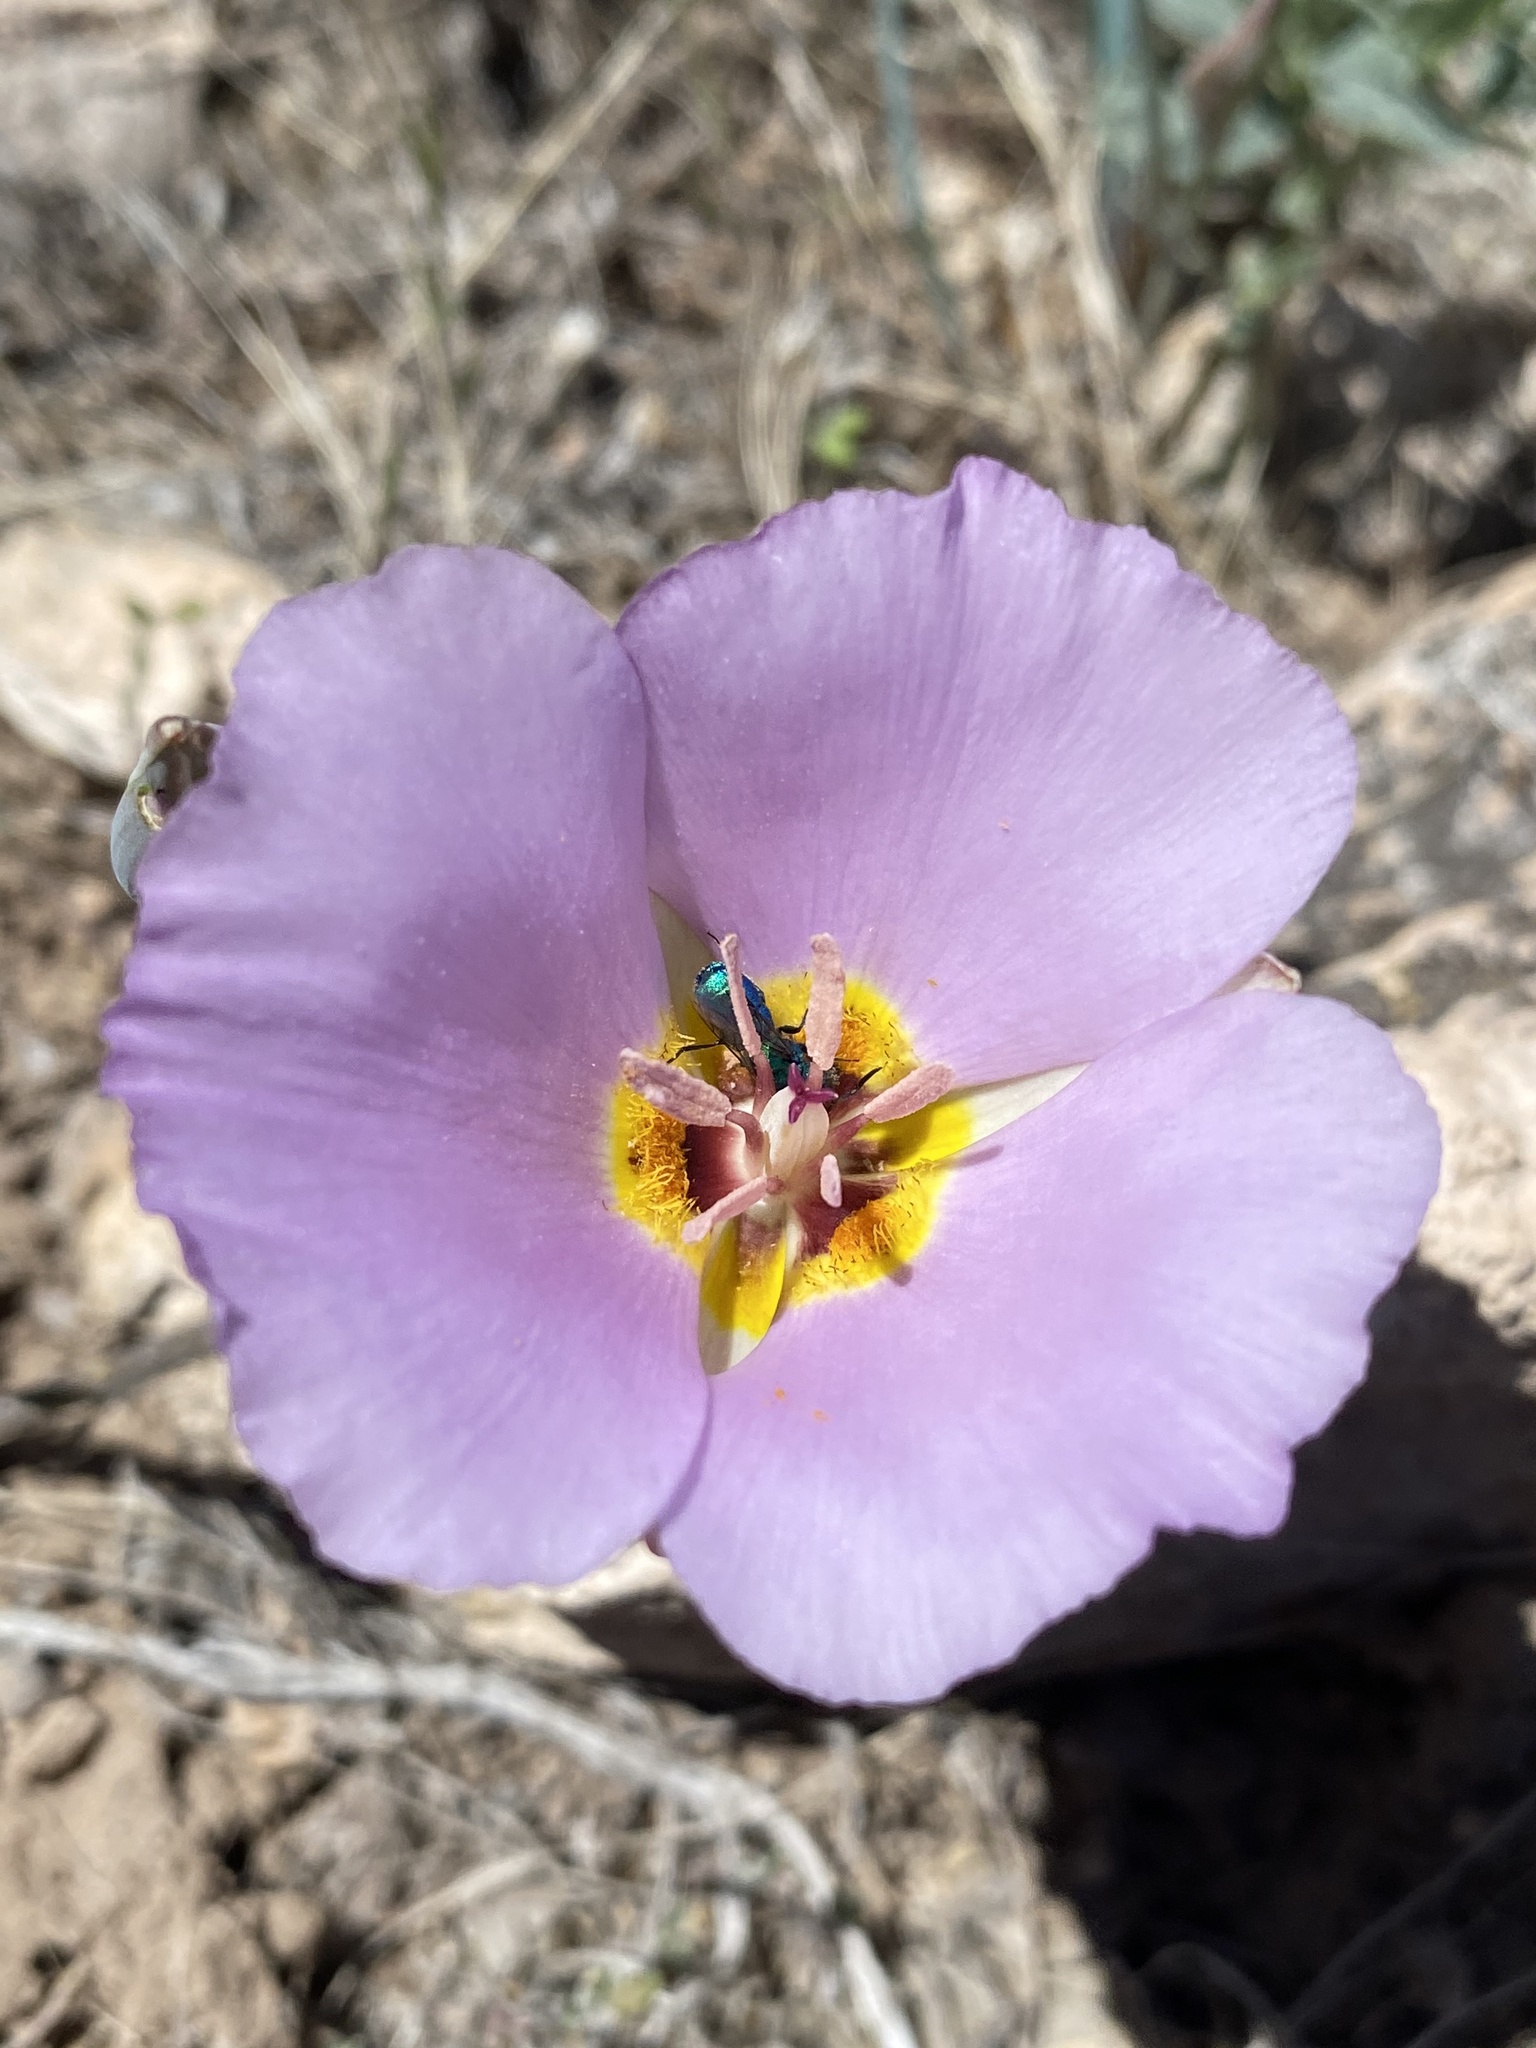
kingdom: Plantae
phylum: Tracheophyta
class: Liliopsida
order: Liliales
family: Liliaceae
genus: Calochortus
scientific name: Calochortus flexuosus
